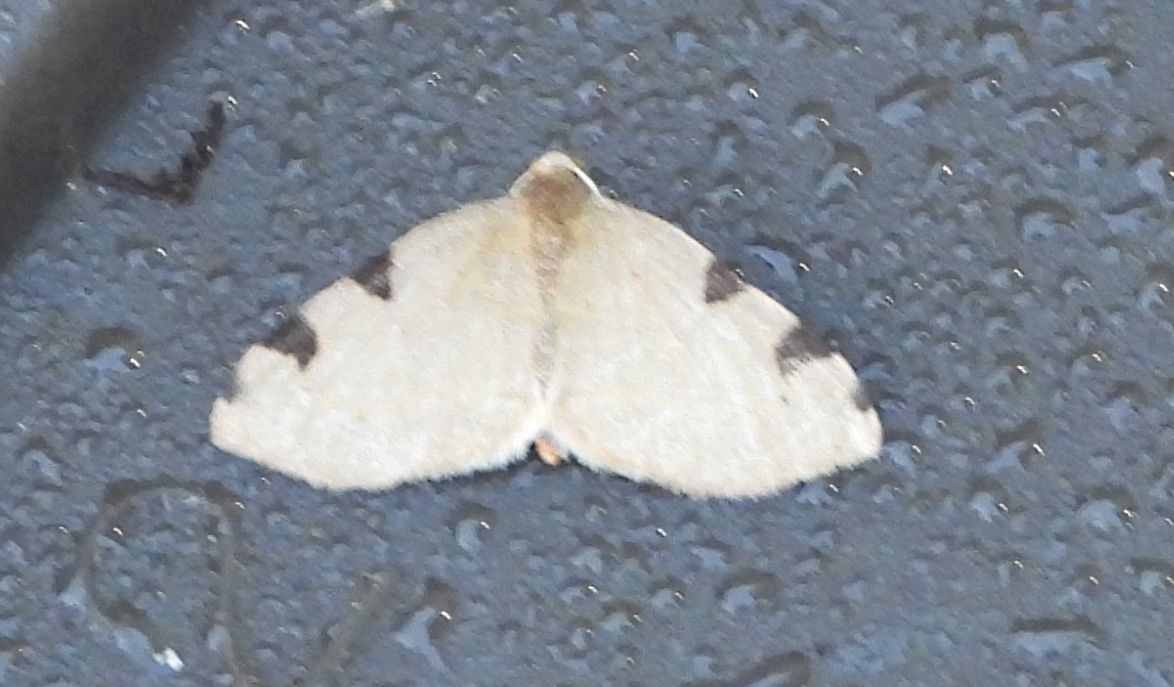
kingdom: Animalia
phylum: Arthropoda
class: Insecta
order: Lepidoptera
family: Geometridae
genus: Heterophleps
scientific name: Heterophleps triguttaria
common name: Three-spotted fillip
